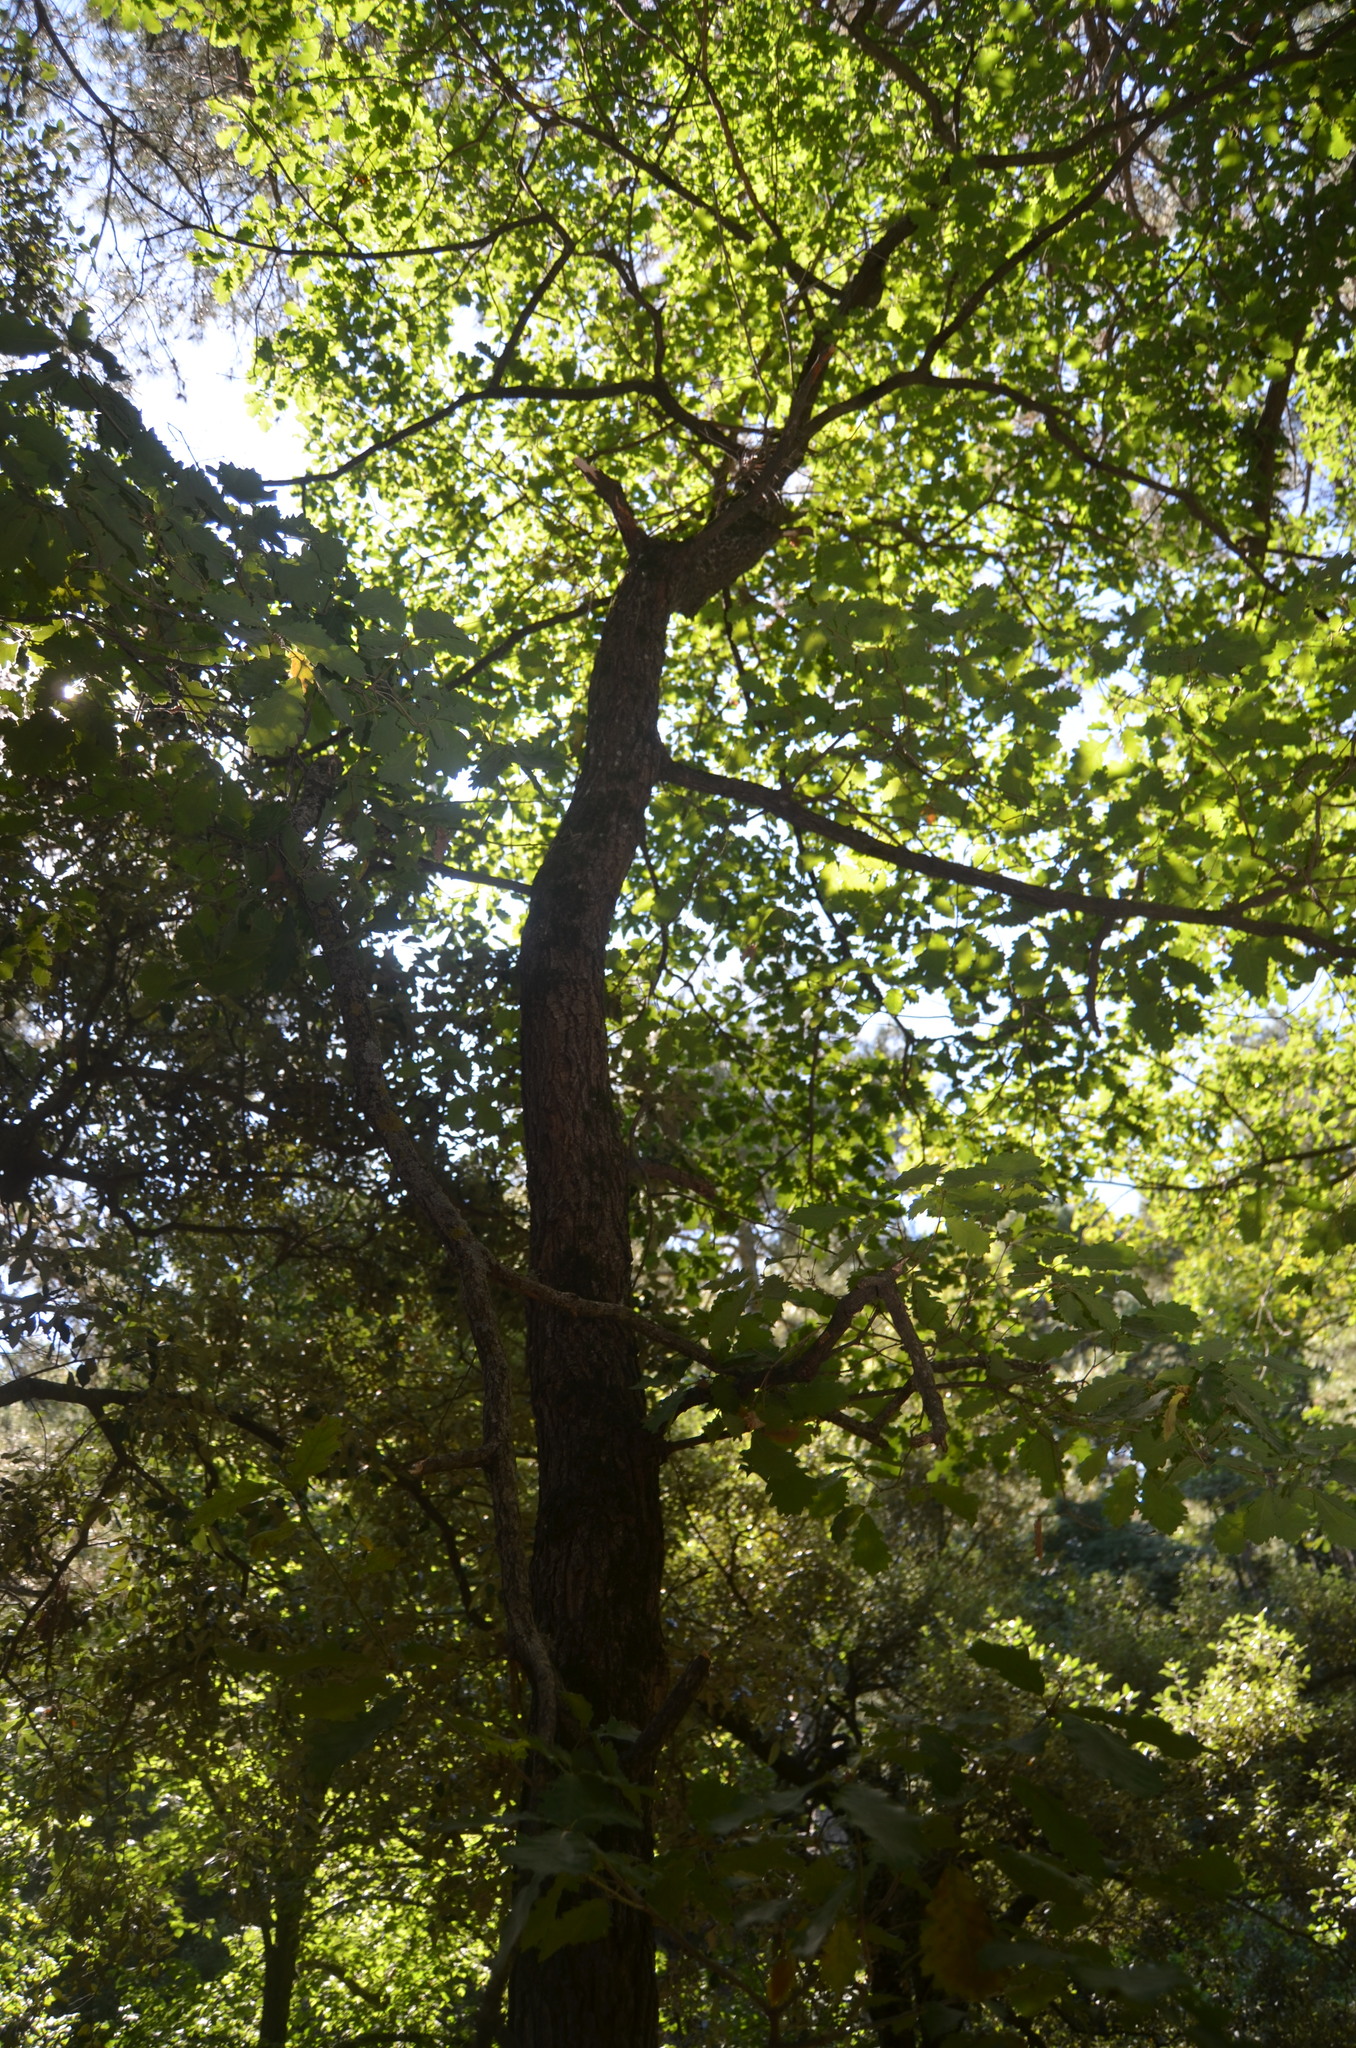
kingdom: Plantae
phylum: Tracheophyta
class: Magnoliopsida
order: Aquifoliales
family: Aquifoliaceae
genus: Ilex
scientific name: Ilex aquifolium
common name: English holly
